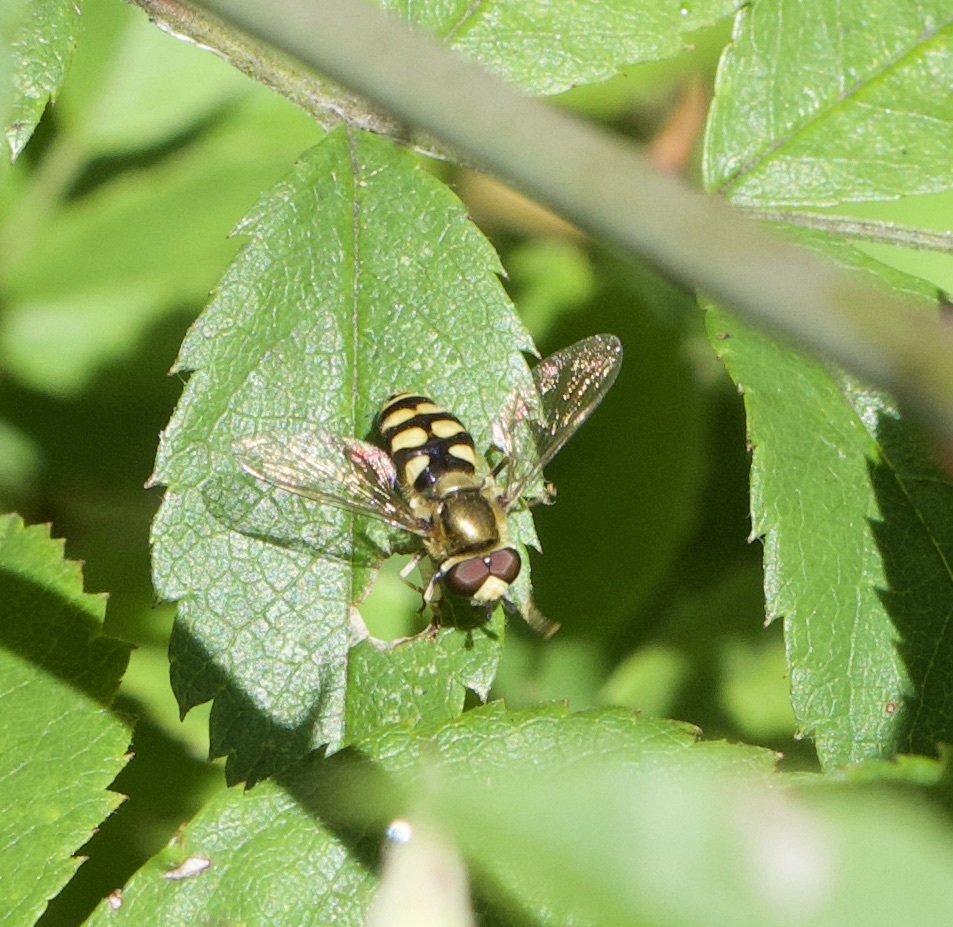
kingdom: Animalia
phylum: Arthropoda
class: Insecta
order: Diptera
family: Syrphidae
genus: Eupeodes
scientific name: Eupeodes
